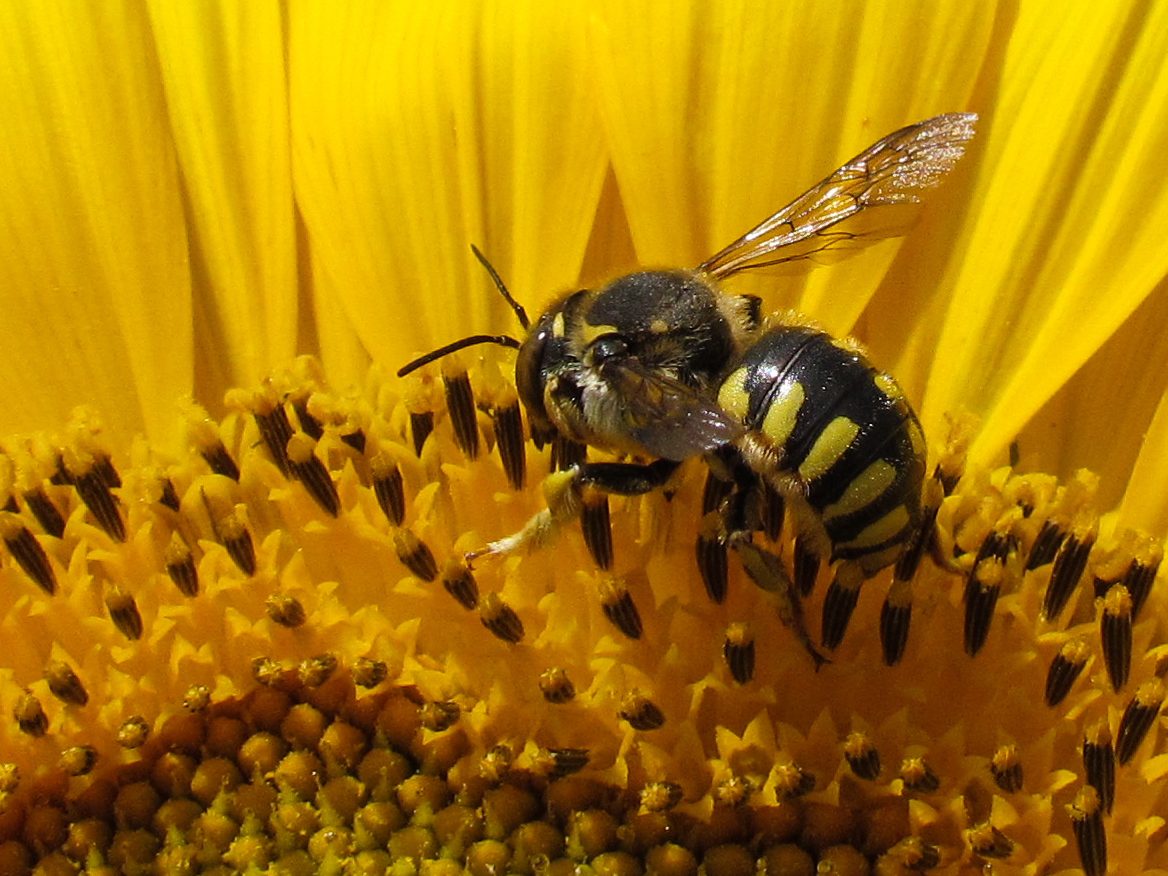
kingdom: Animalia
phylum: Arthropoda
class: Insecta
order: Hymenoptera
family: Megachilidae
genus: Anthidium
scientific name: Anthidium florentinum
